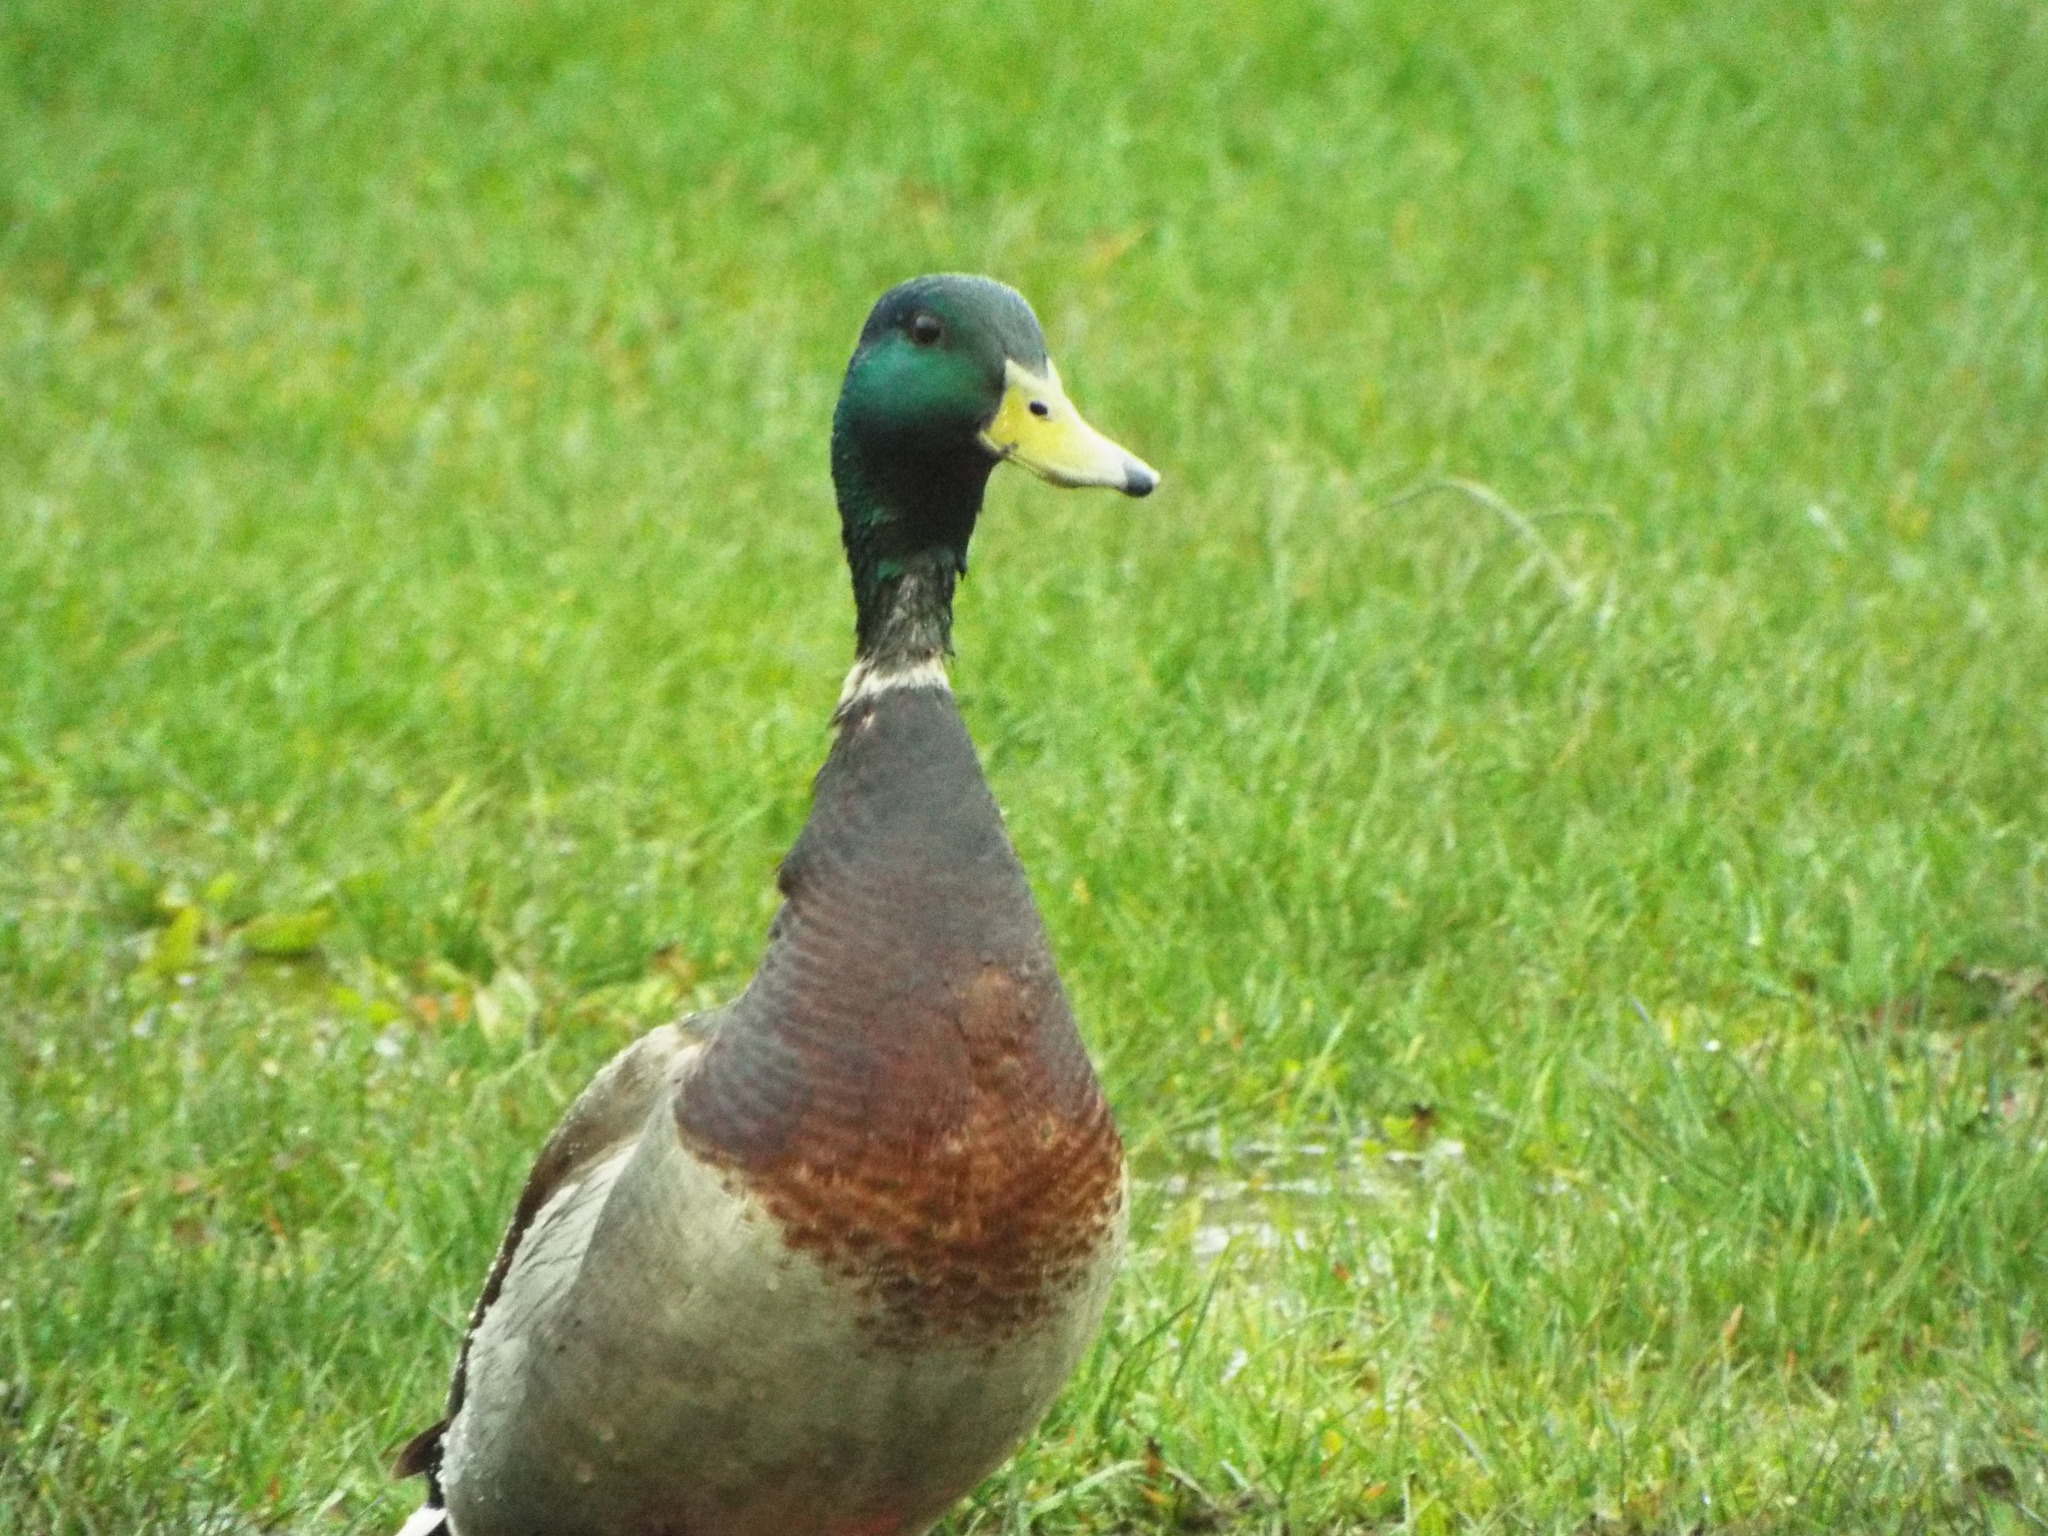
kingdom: Animalia
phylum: Chordata
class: Aves
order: Anseriformes
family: Anatidae
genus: Anas
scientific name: Anas platyrhynchos
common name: Mallard
